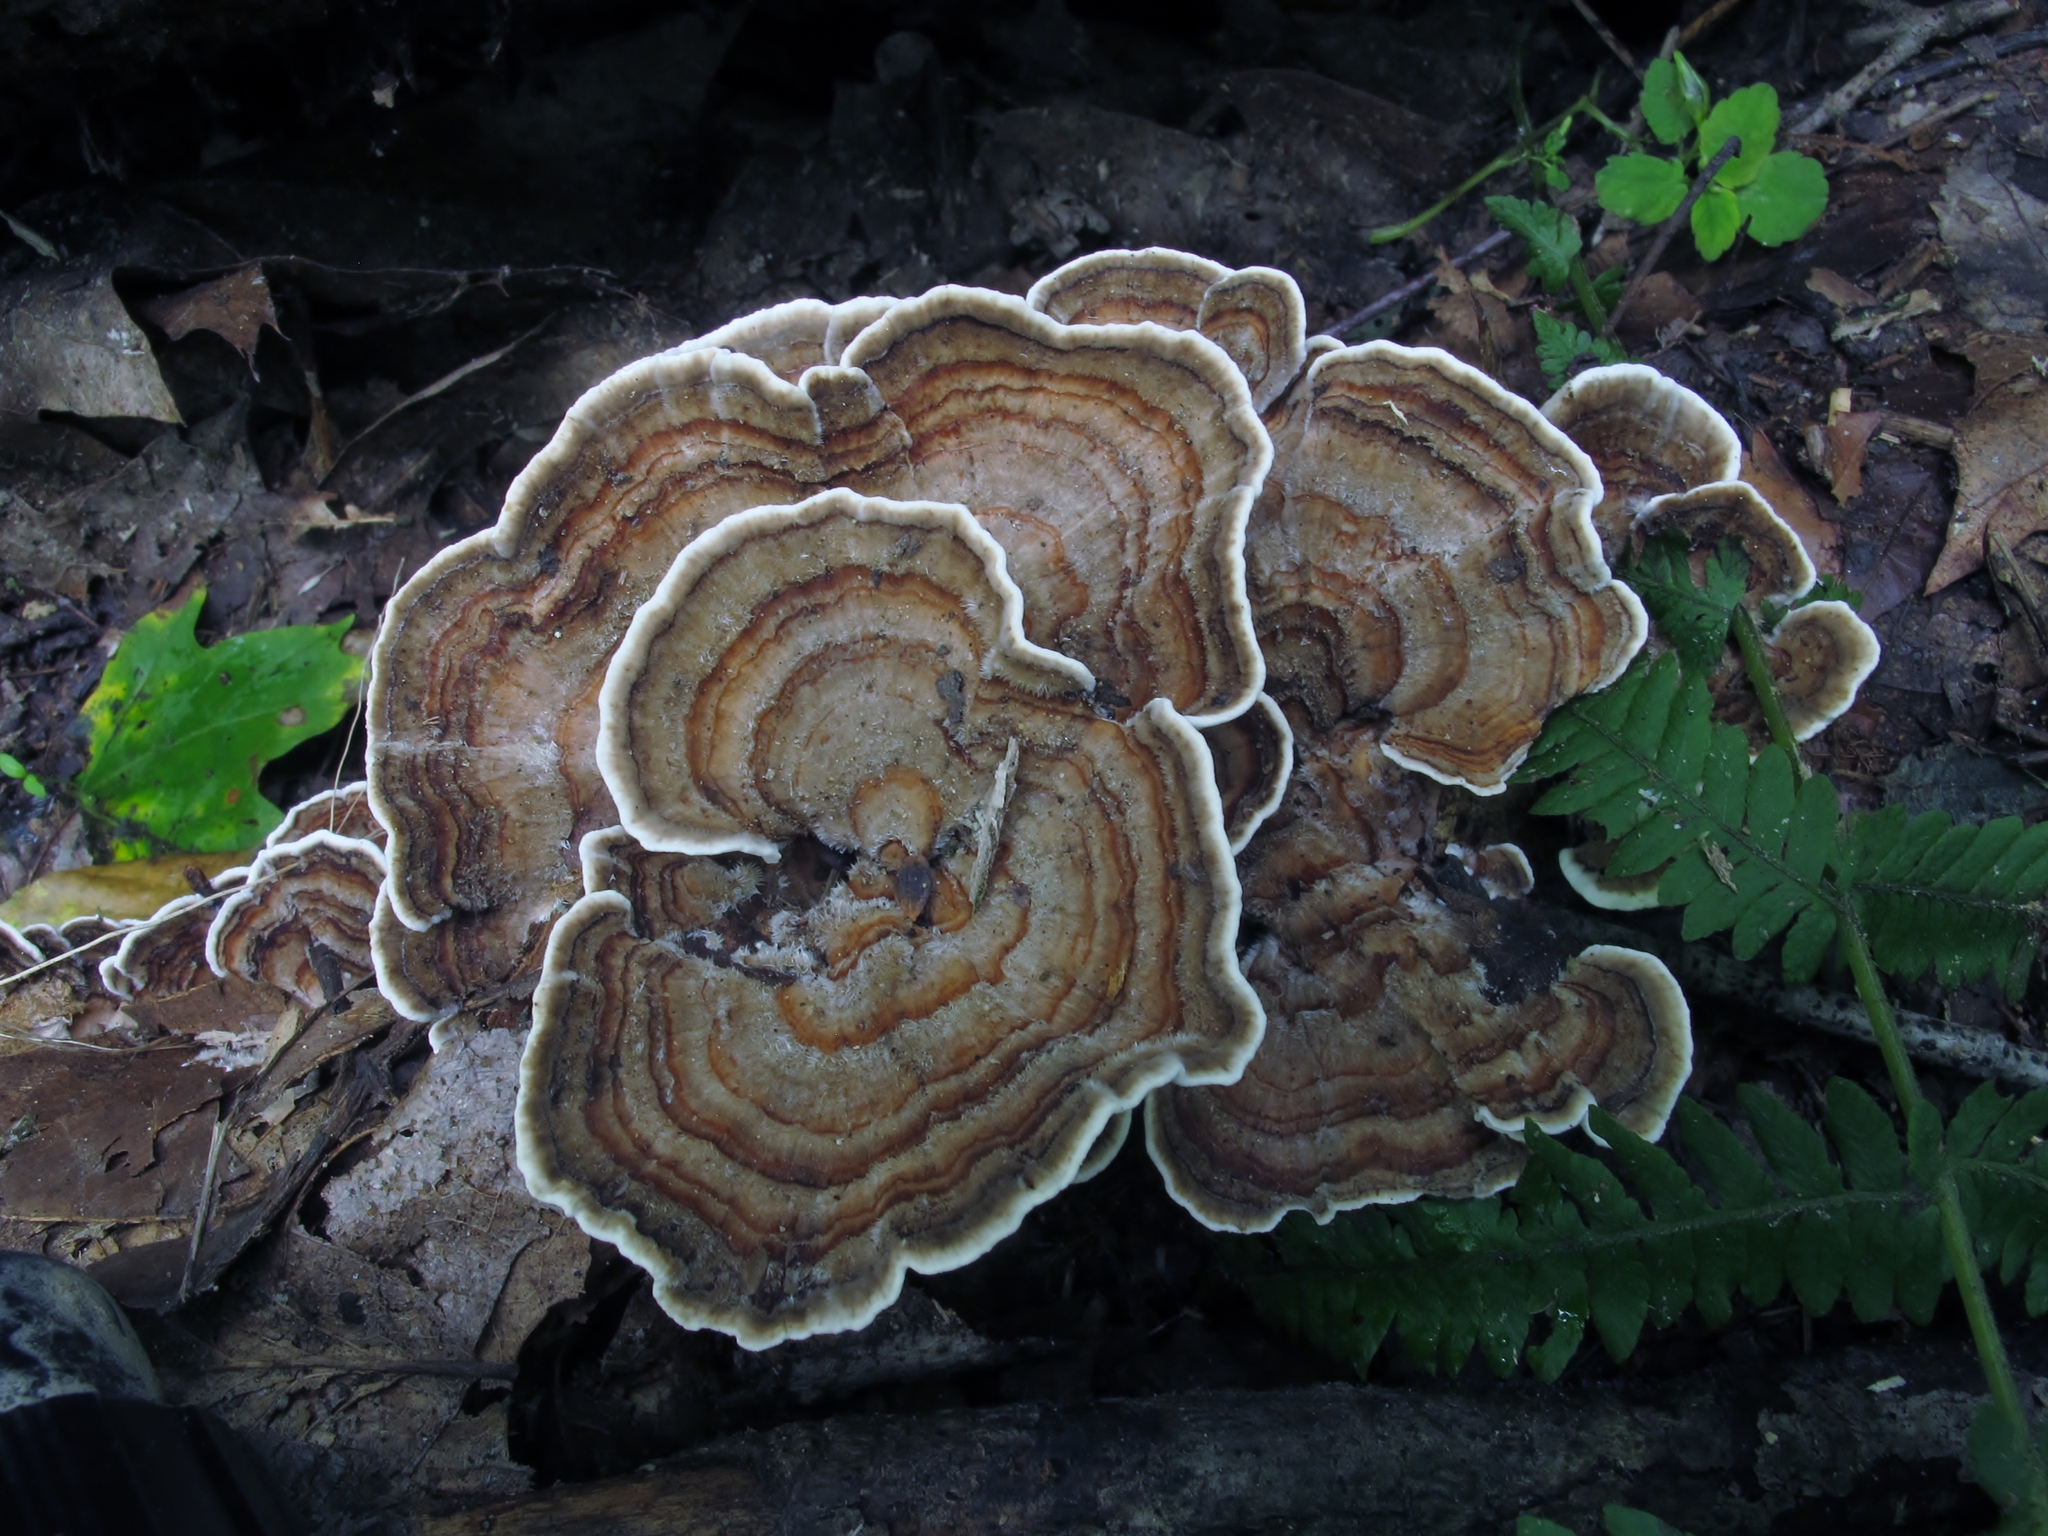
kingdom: Fungi
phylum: Basidiomycota
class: Agaricomycetes
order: Polyporales
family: Polyporaceae
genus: Trametes
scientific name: Trametes versicolor
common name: Turkeytail
